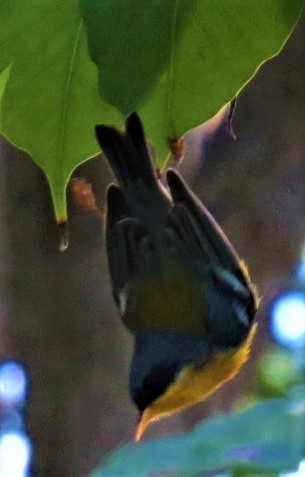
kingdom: Animalia
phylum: Chordata
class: Aves
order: Passeriformes
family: Parulidae
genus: Setophaga
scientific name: Setophaga pitiayumi
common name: Tropical parula
